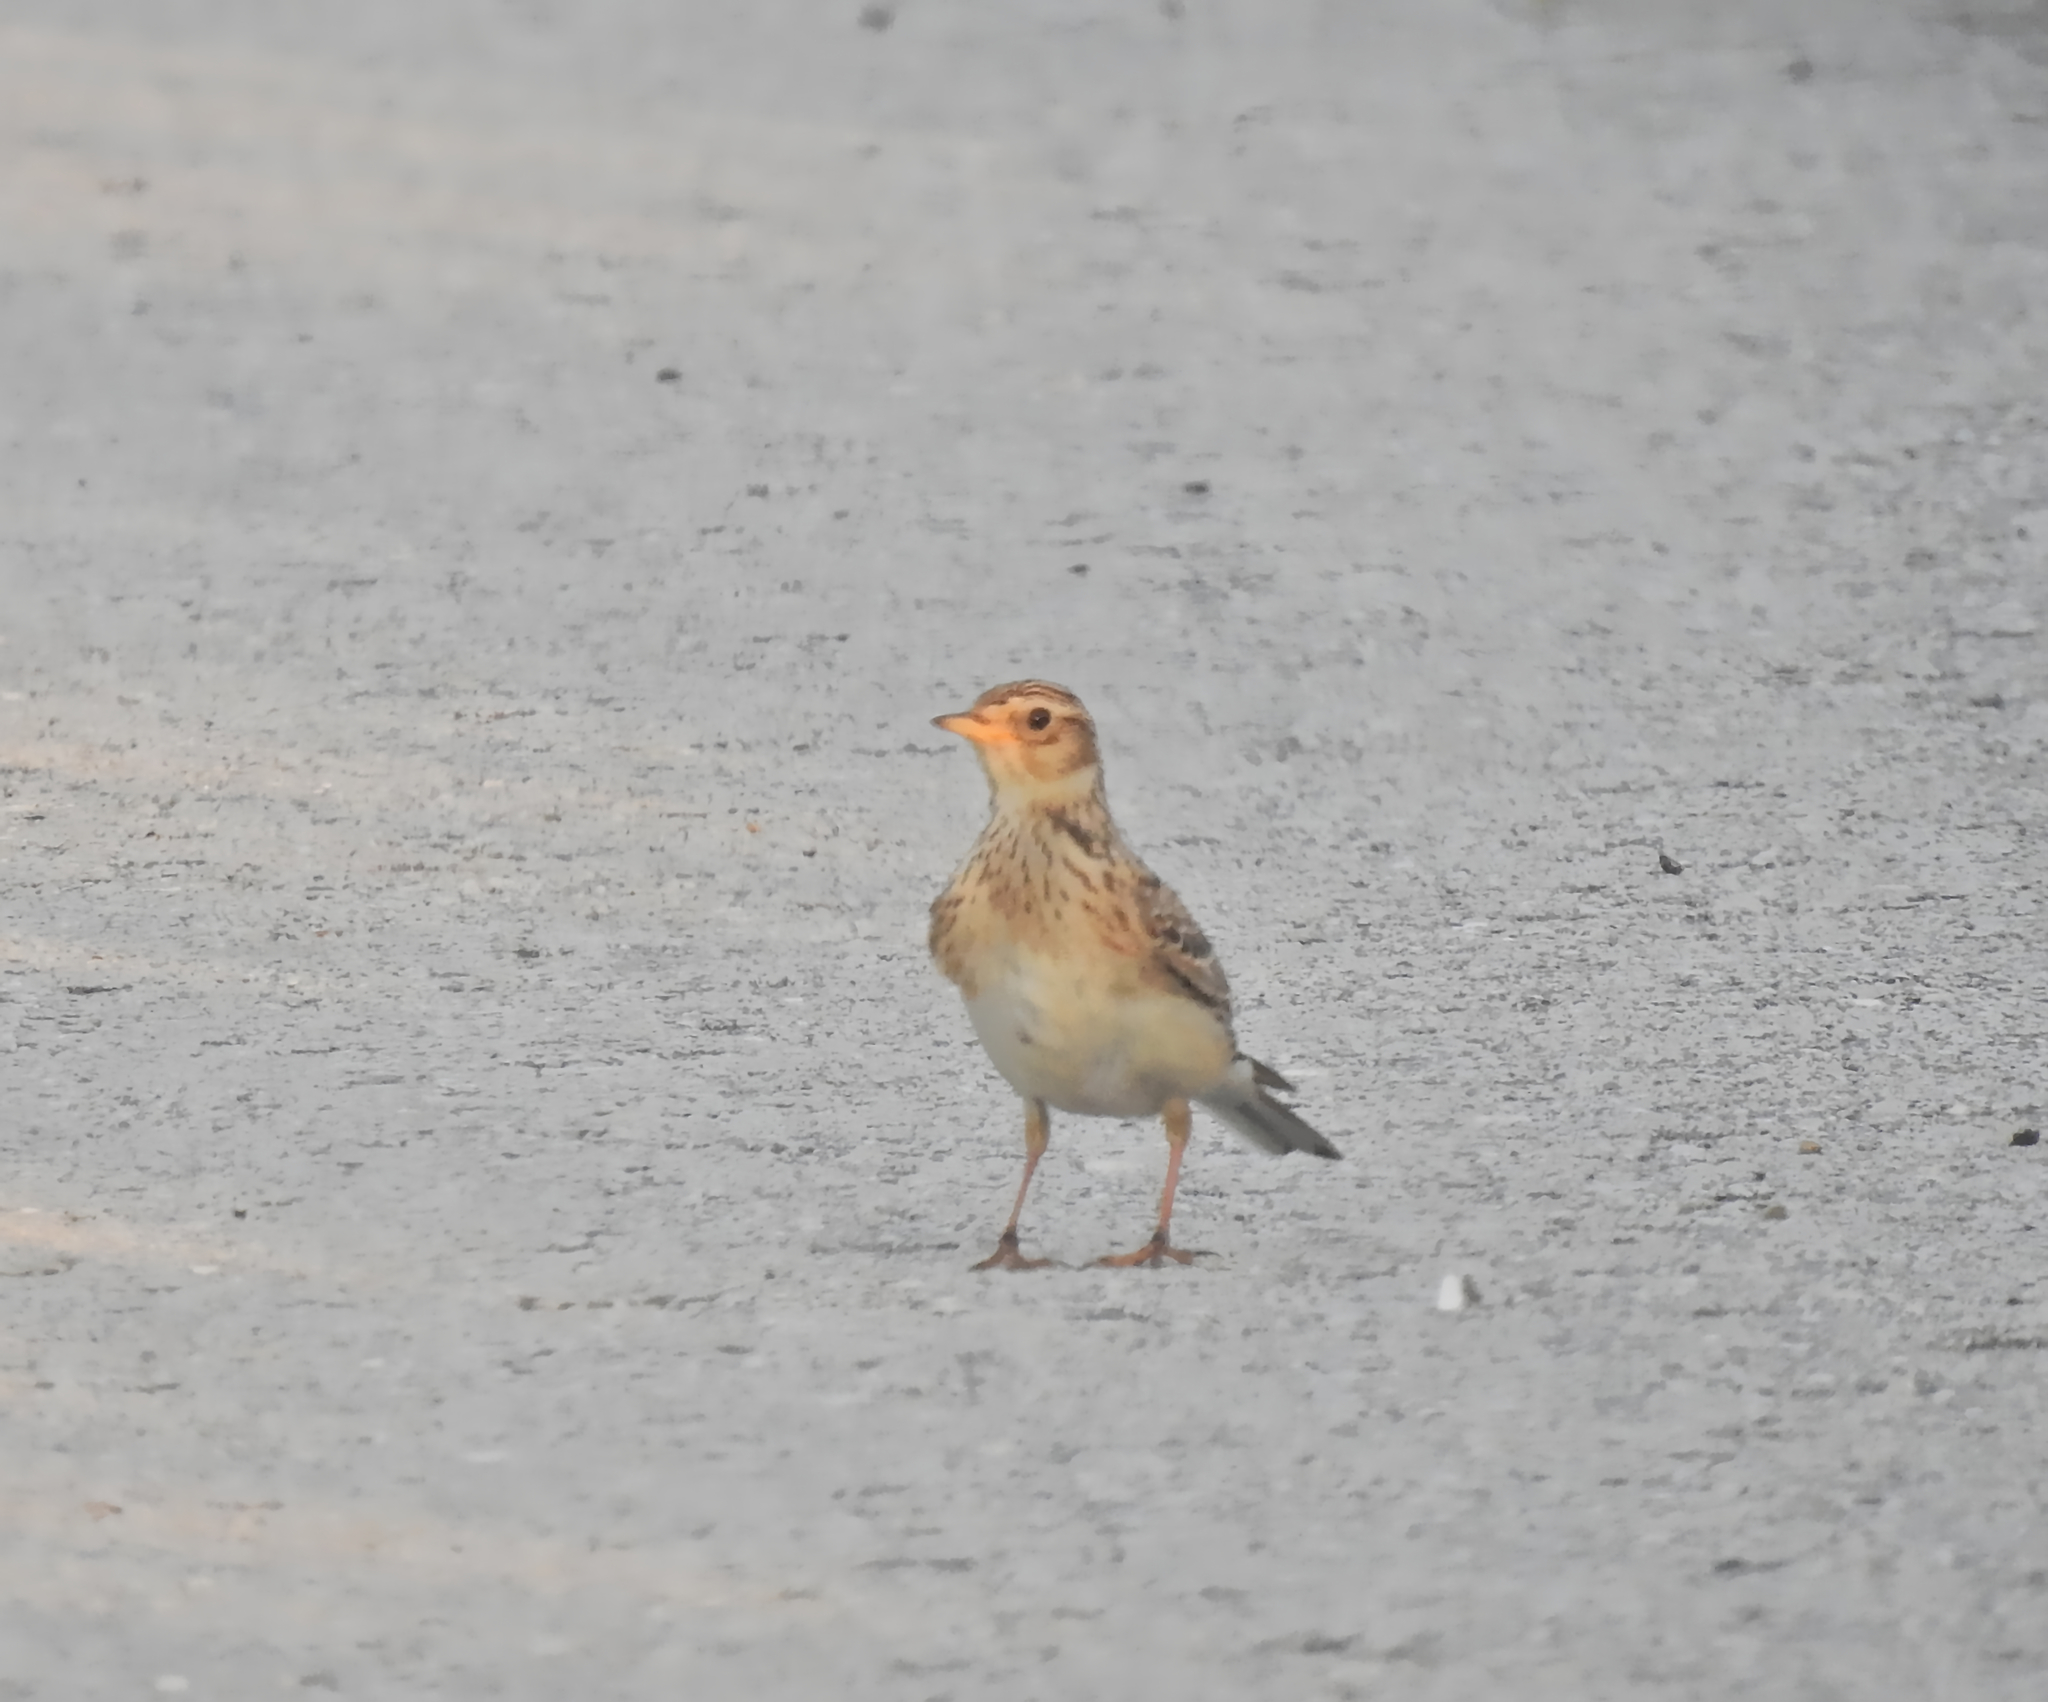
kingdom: Animalia
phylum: Chordata
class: Aves
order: Passeriformes
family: Alaudidae
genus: Alauda
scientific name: Alauda arvensis
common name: Eurasian skylark
